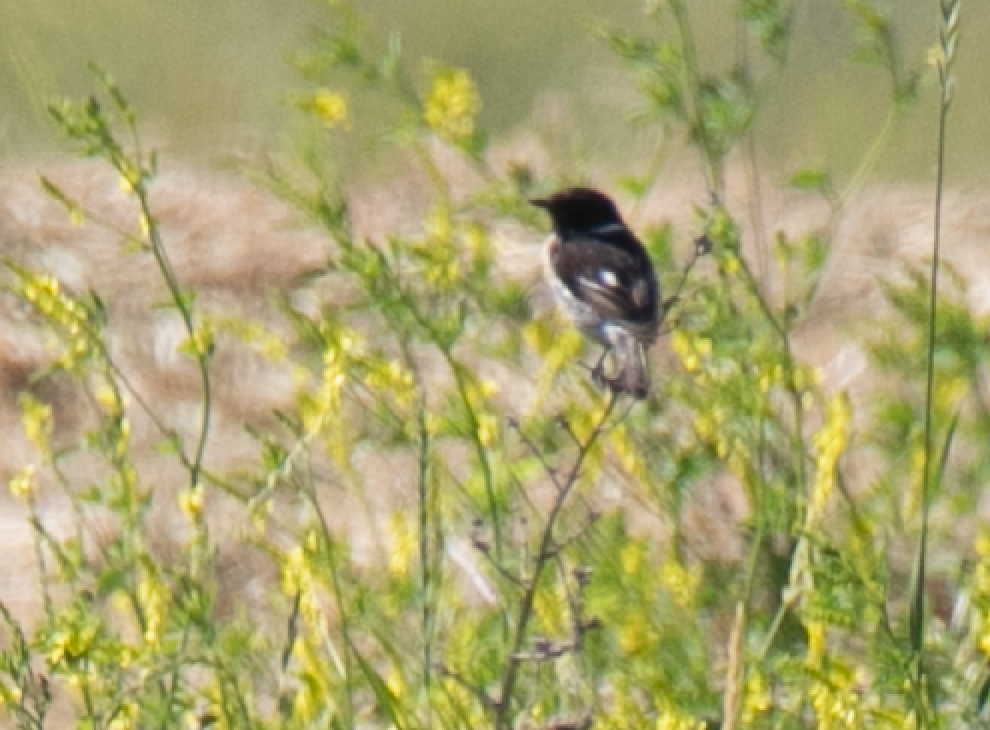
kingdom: Animalia
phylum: Chordata
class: Aves
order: Passeriformes
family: Muscicapidae
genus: Saxicola
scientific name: Saxicola rubicola
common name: European stonechat
